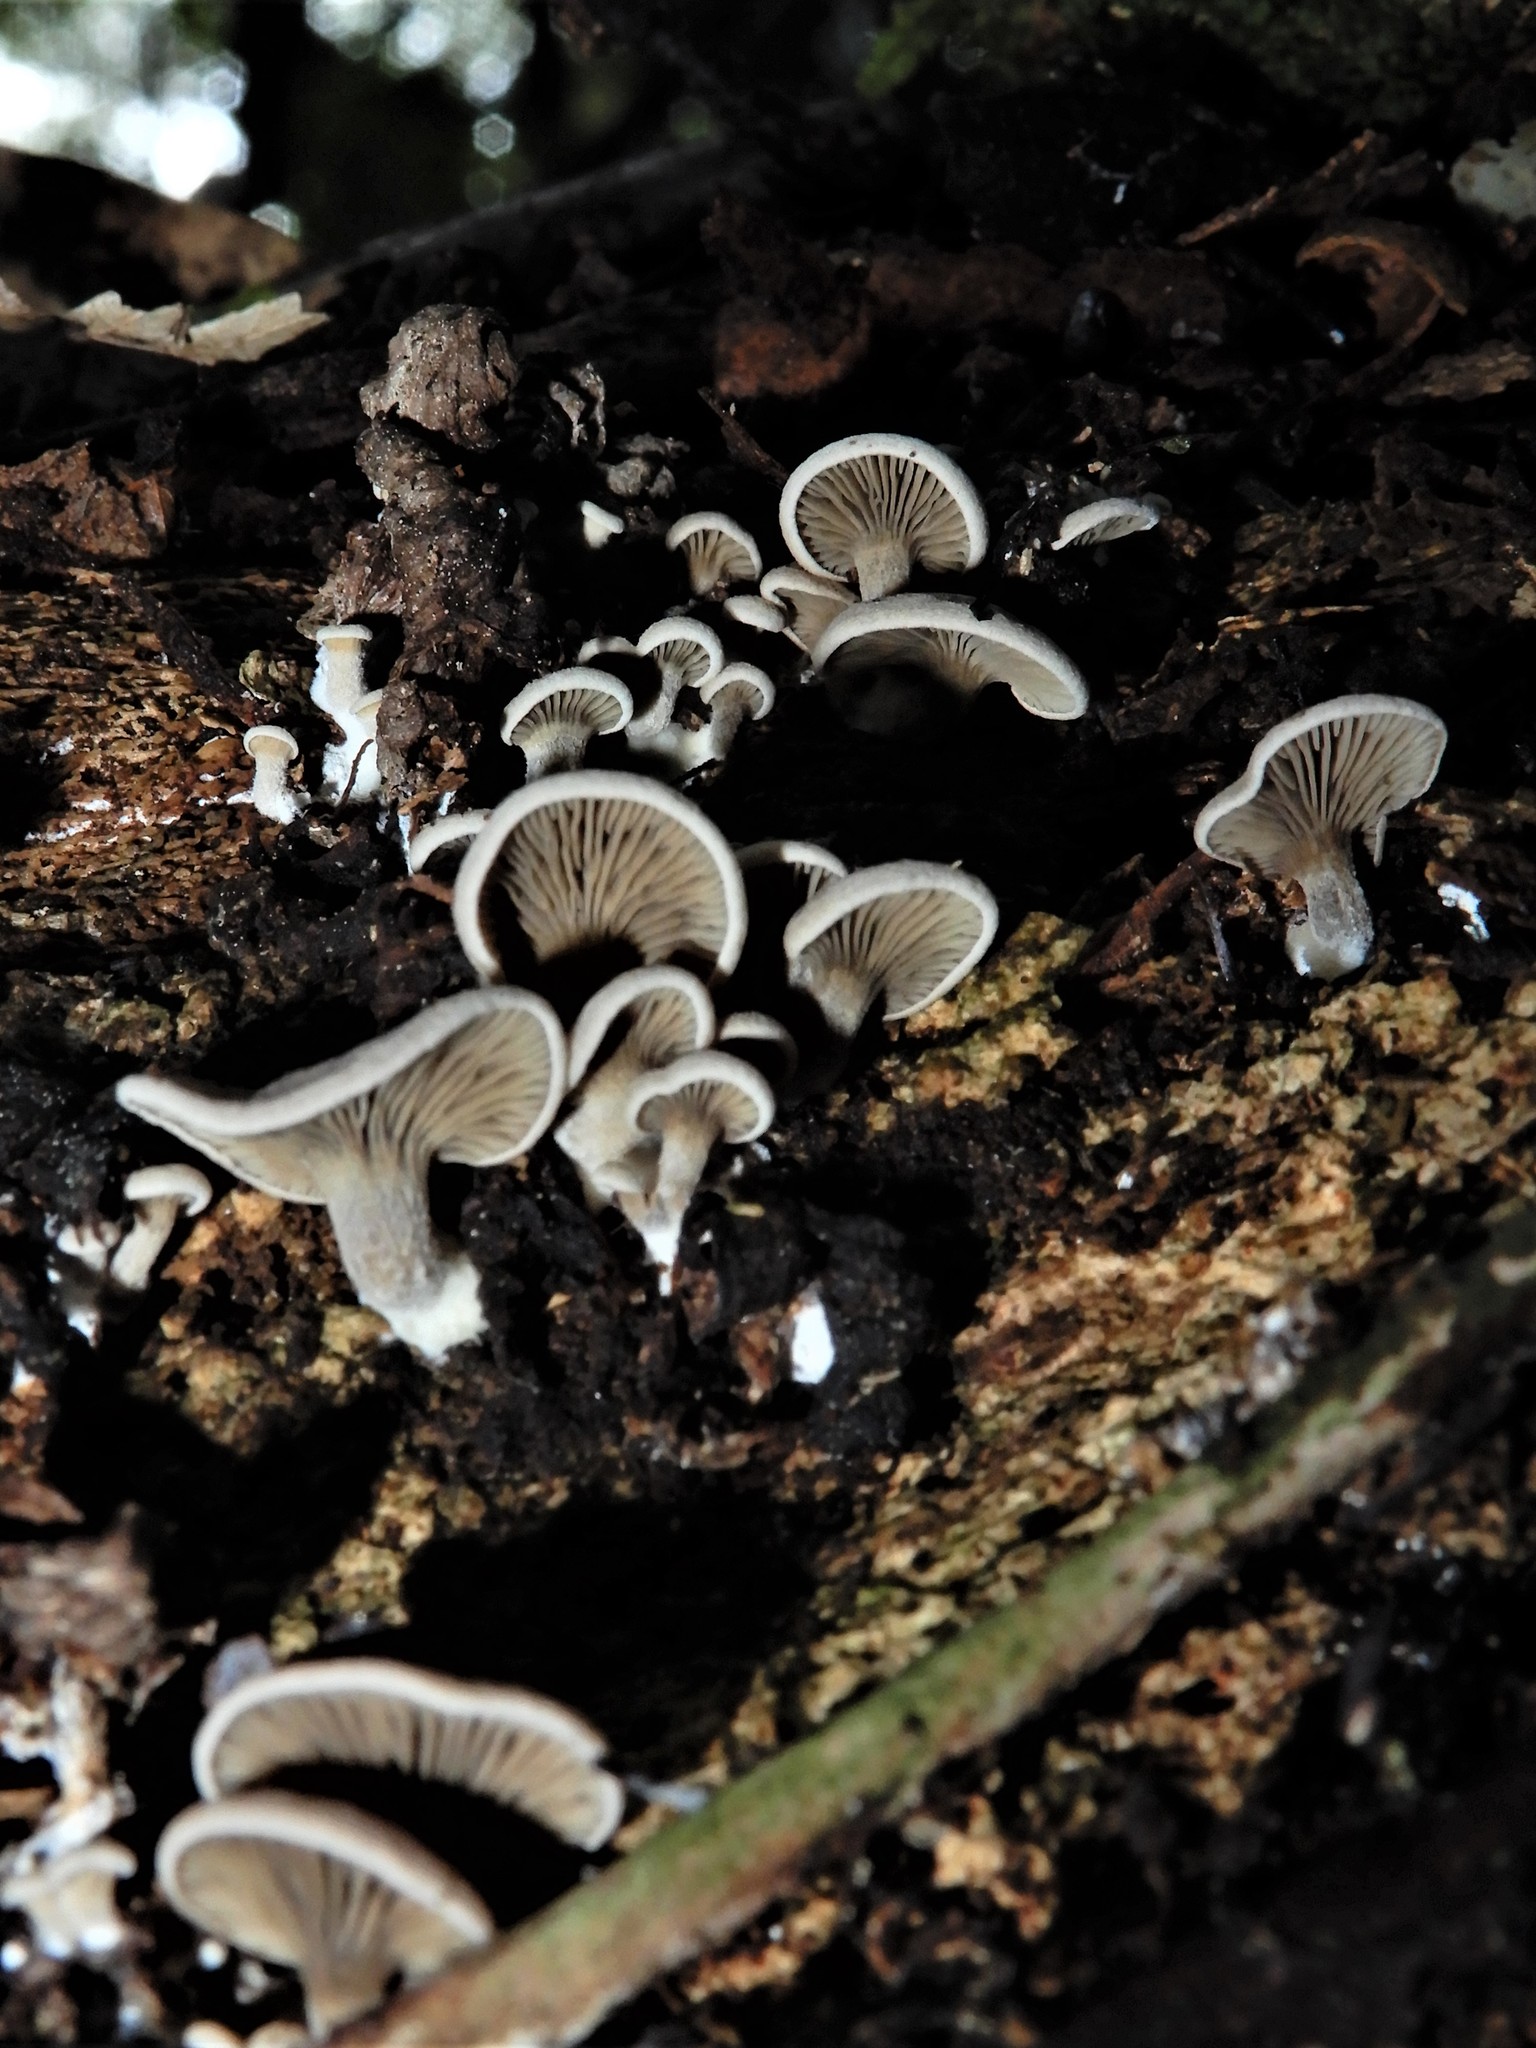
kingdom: Fungi
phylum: Basidiomycota
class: Agaricomycetes
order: Agaricales
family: Tricholomataceae
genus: Rhizocybe
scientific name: Rhizocybe
